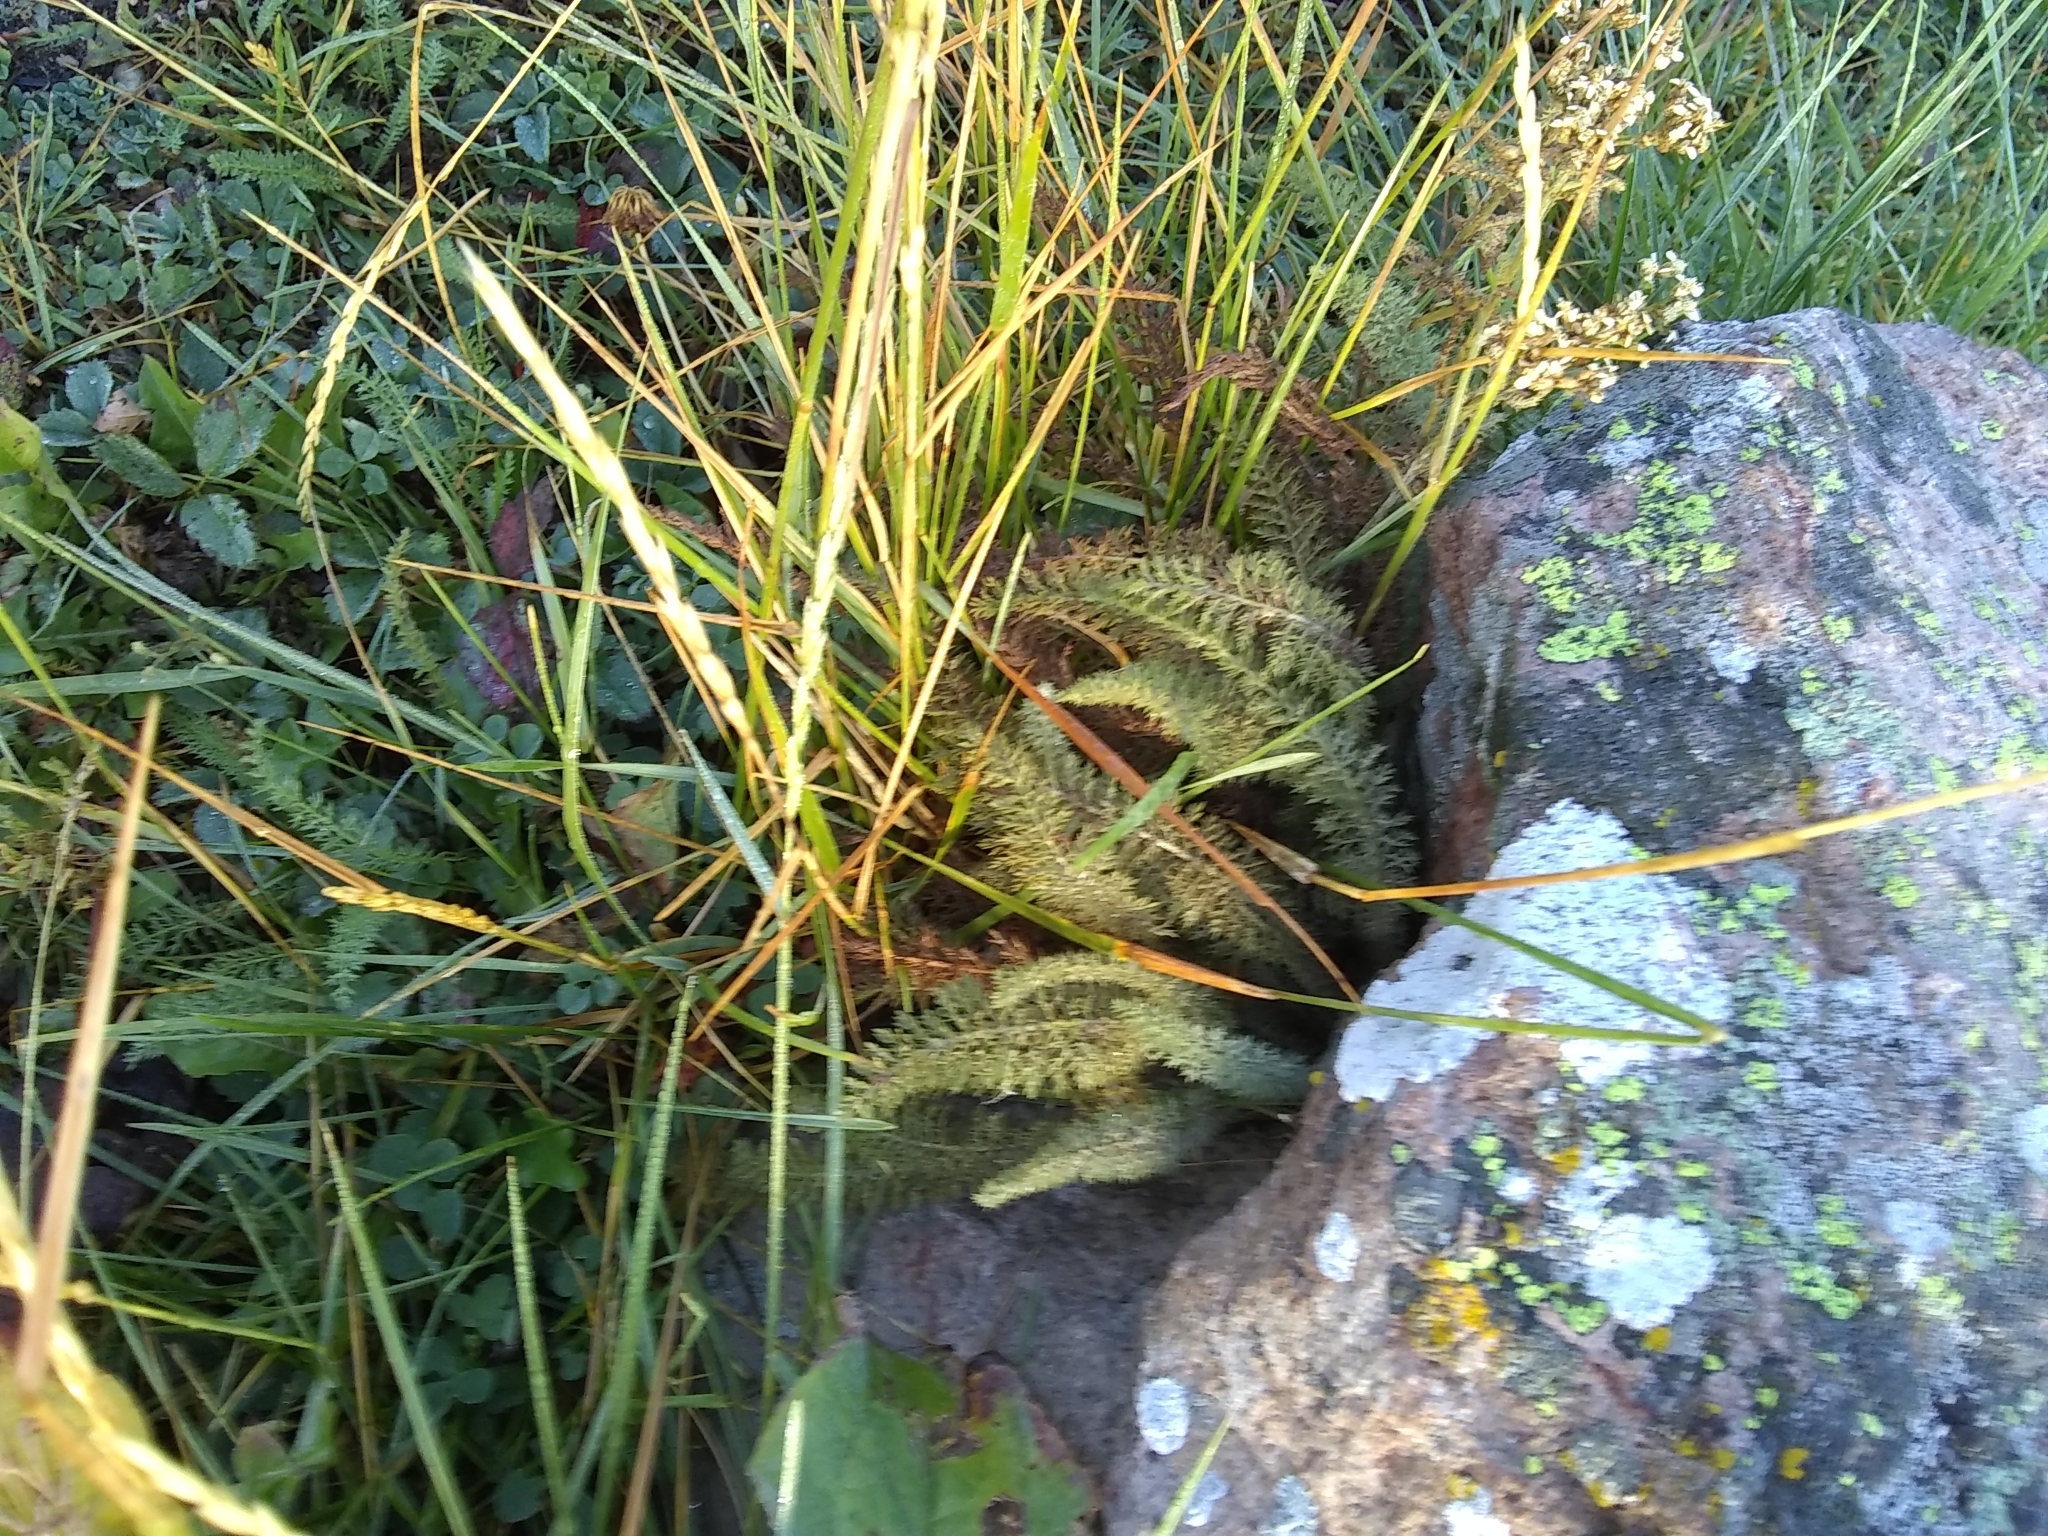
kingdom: Plantae
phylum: Tracheophyta
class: Magnoliopsida
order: Asterales
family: Asteraceae
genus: Achillea
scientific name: Achillea millefolium
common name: Yarrow
